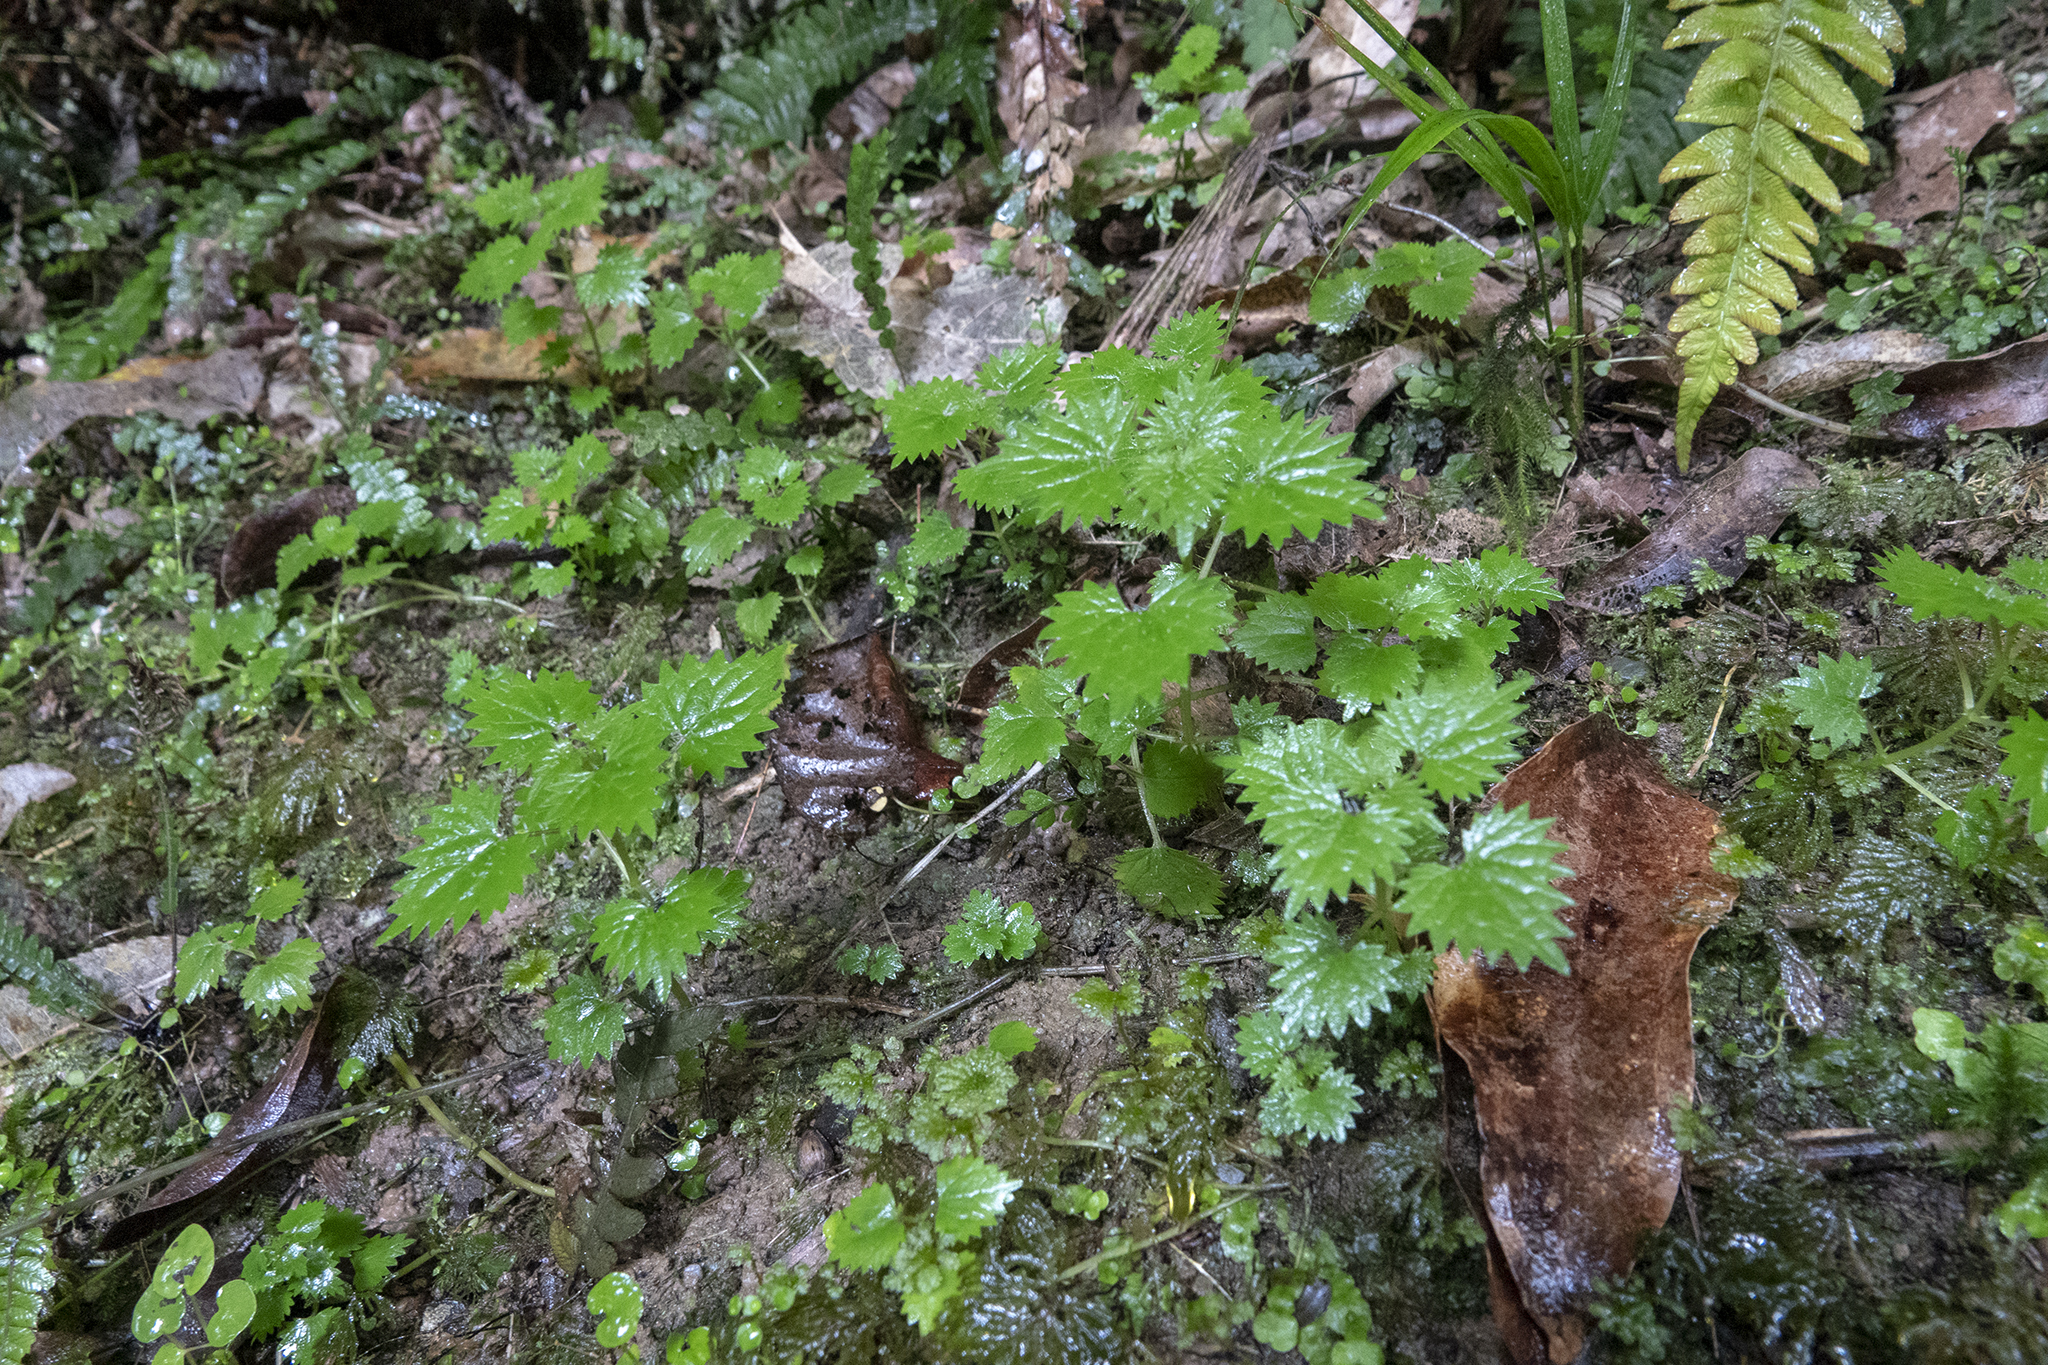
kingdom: Plantae
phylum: Tracheophyta
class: Magnoliopsida
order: Rosales
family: Urticaceae
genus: Urtica
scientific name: Urtica sykesii
